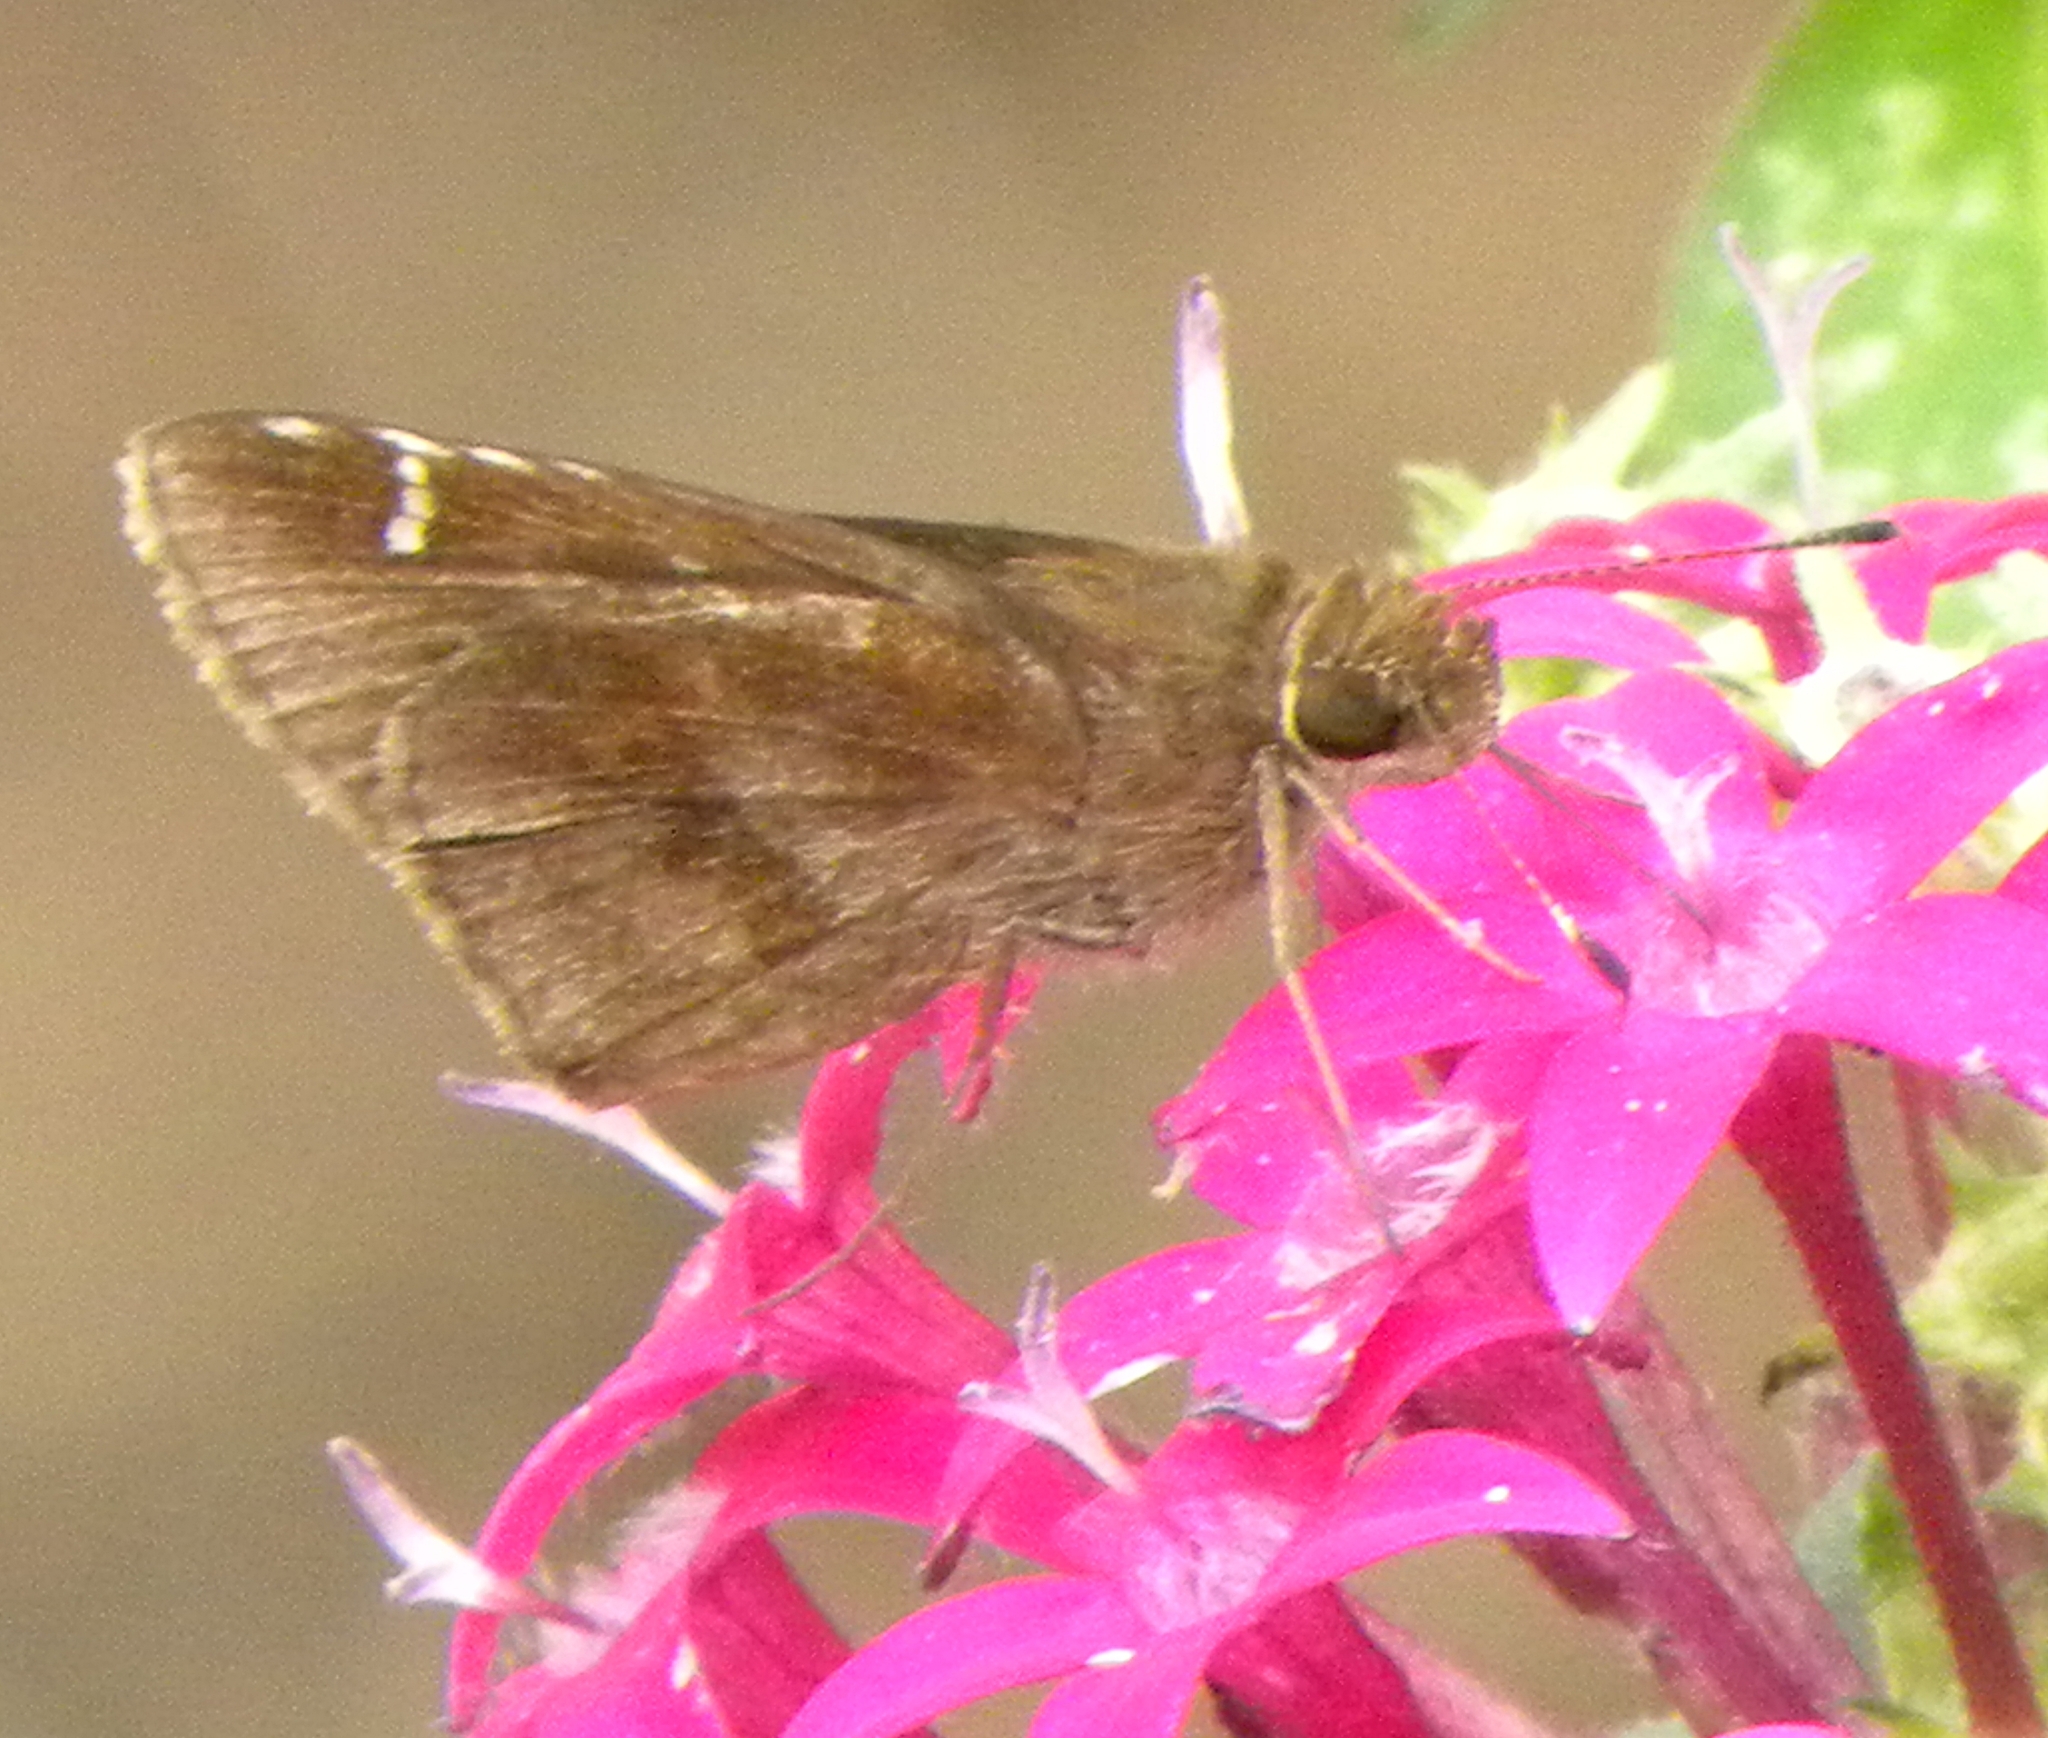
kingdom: Animalia
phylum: Arthropoda
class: Insecta
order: Lepidoptera
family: Hesperiidae
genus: Lerema
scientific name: Lerema accius
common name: Clouded skipper
